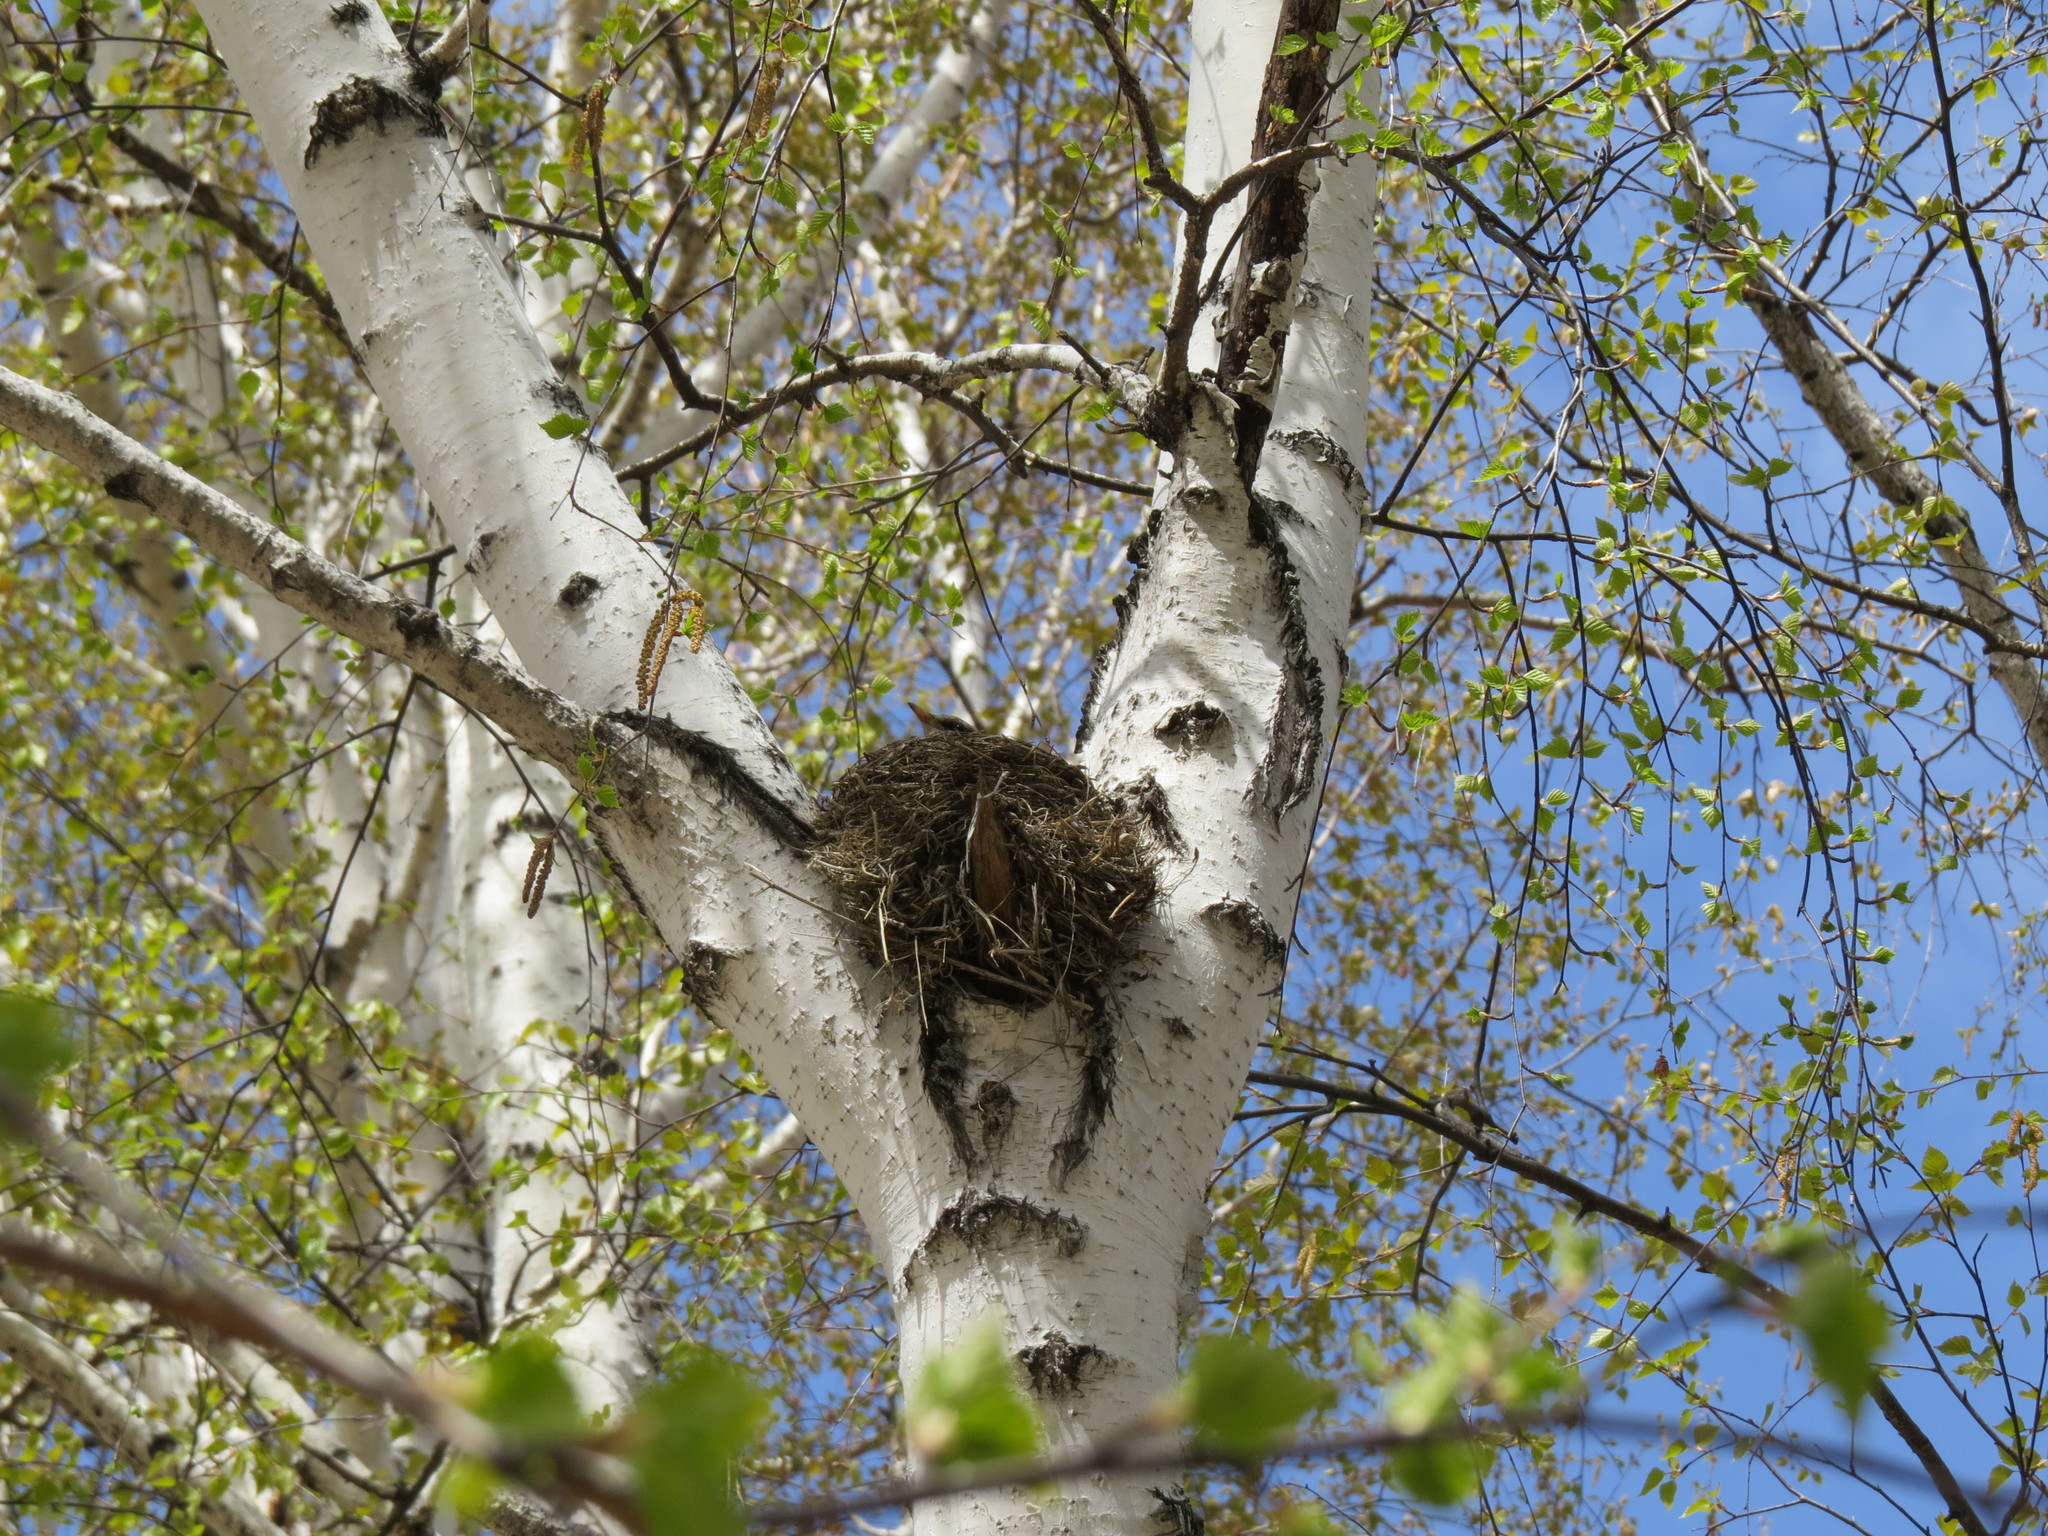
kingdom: Animalia
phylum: Chordata
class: Aves
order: Passeriformes
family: Turdidae
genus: Turdus
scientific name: Turdus pilaris
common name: Fieldfare
